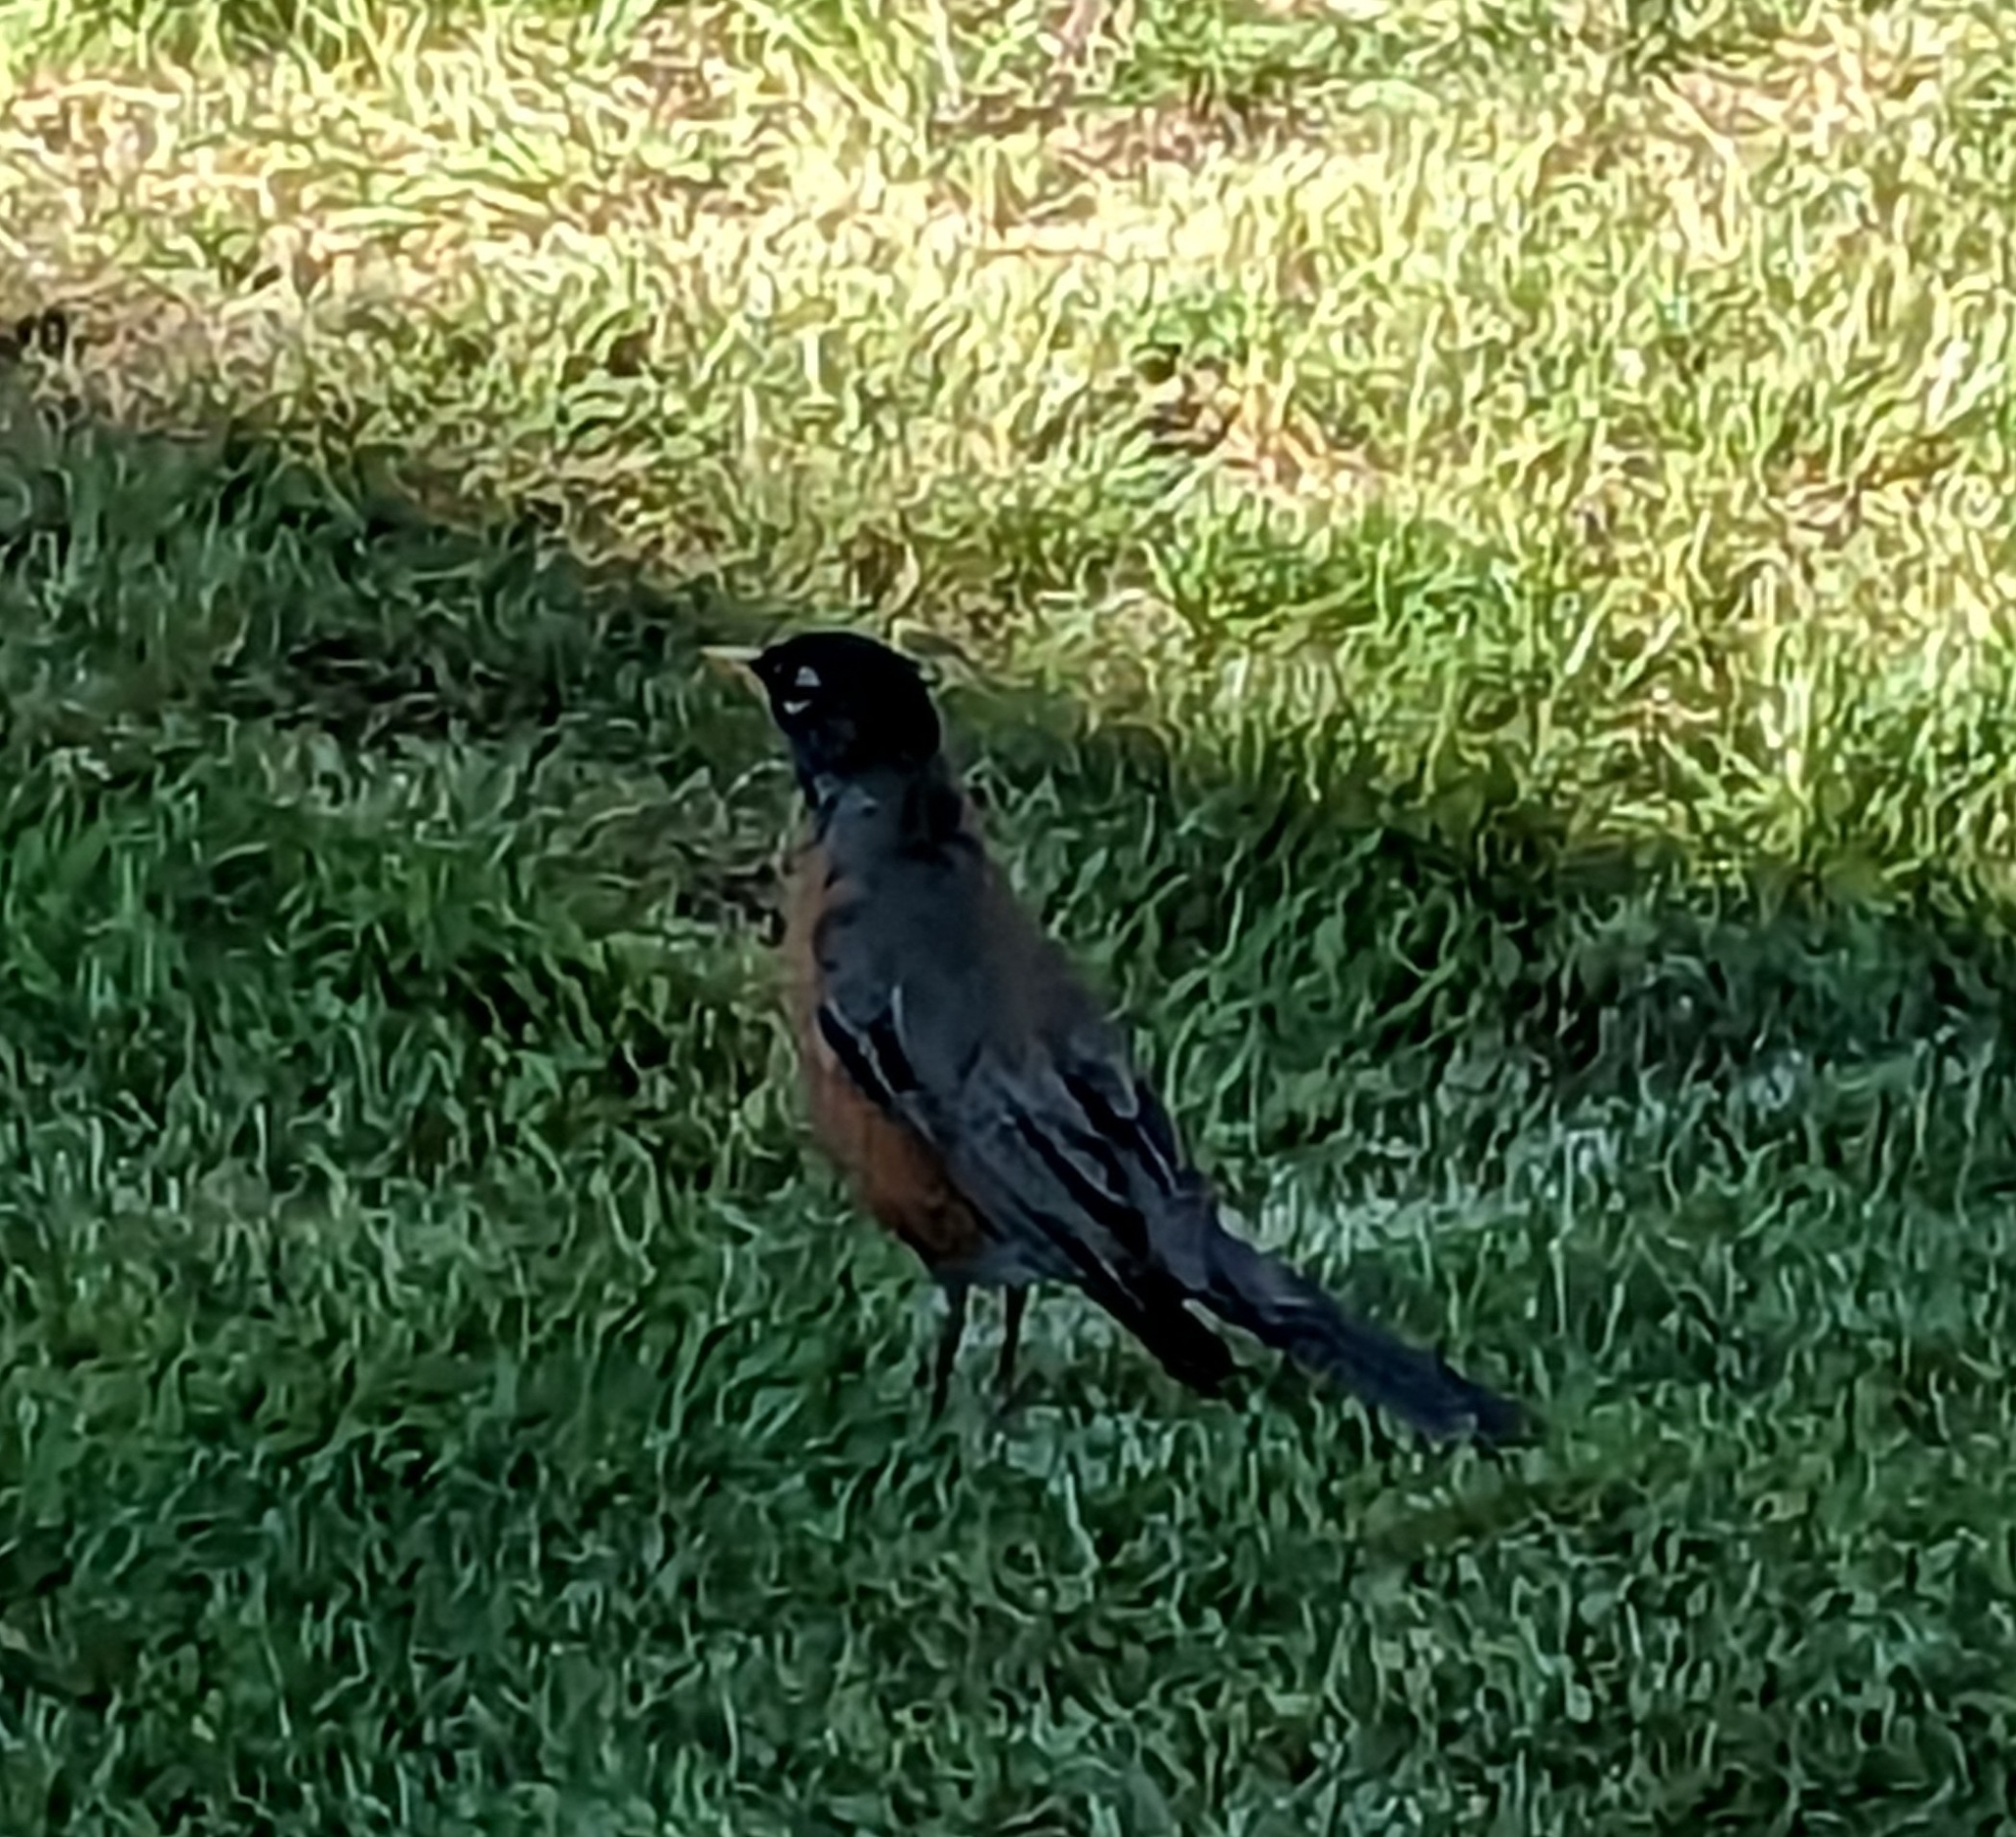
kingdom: Animalia
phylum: Chordata
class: Aves
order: Passeriformes
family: Turdidae
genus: Turdus
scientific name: Turdus migratorius
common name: American robin
